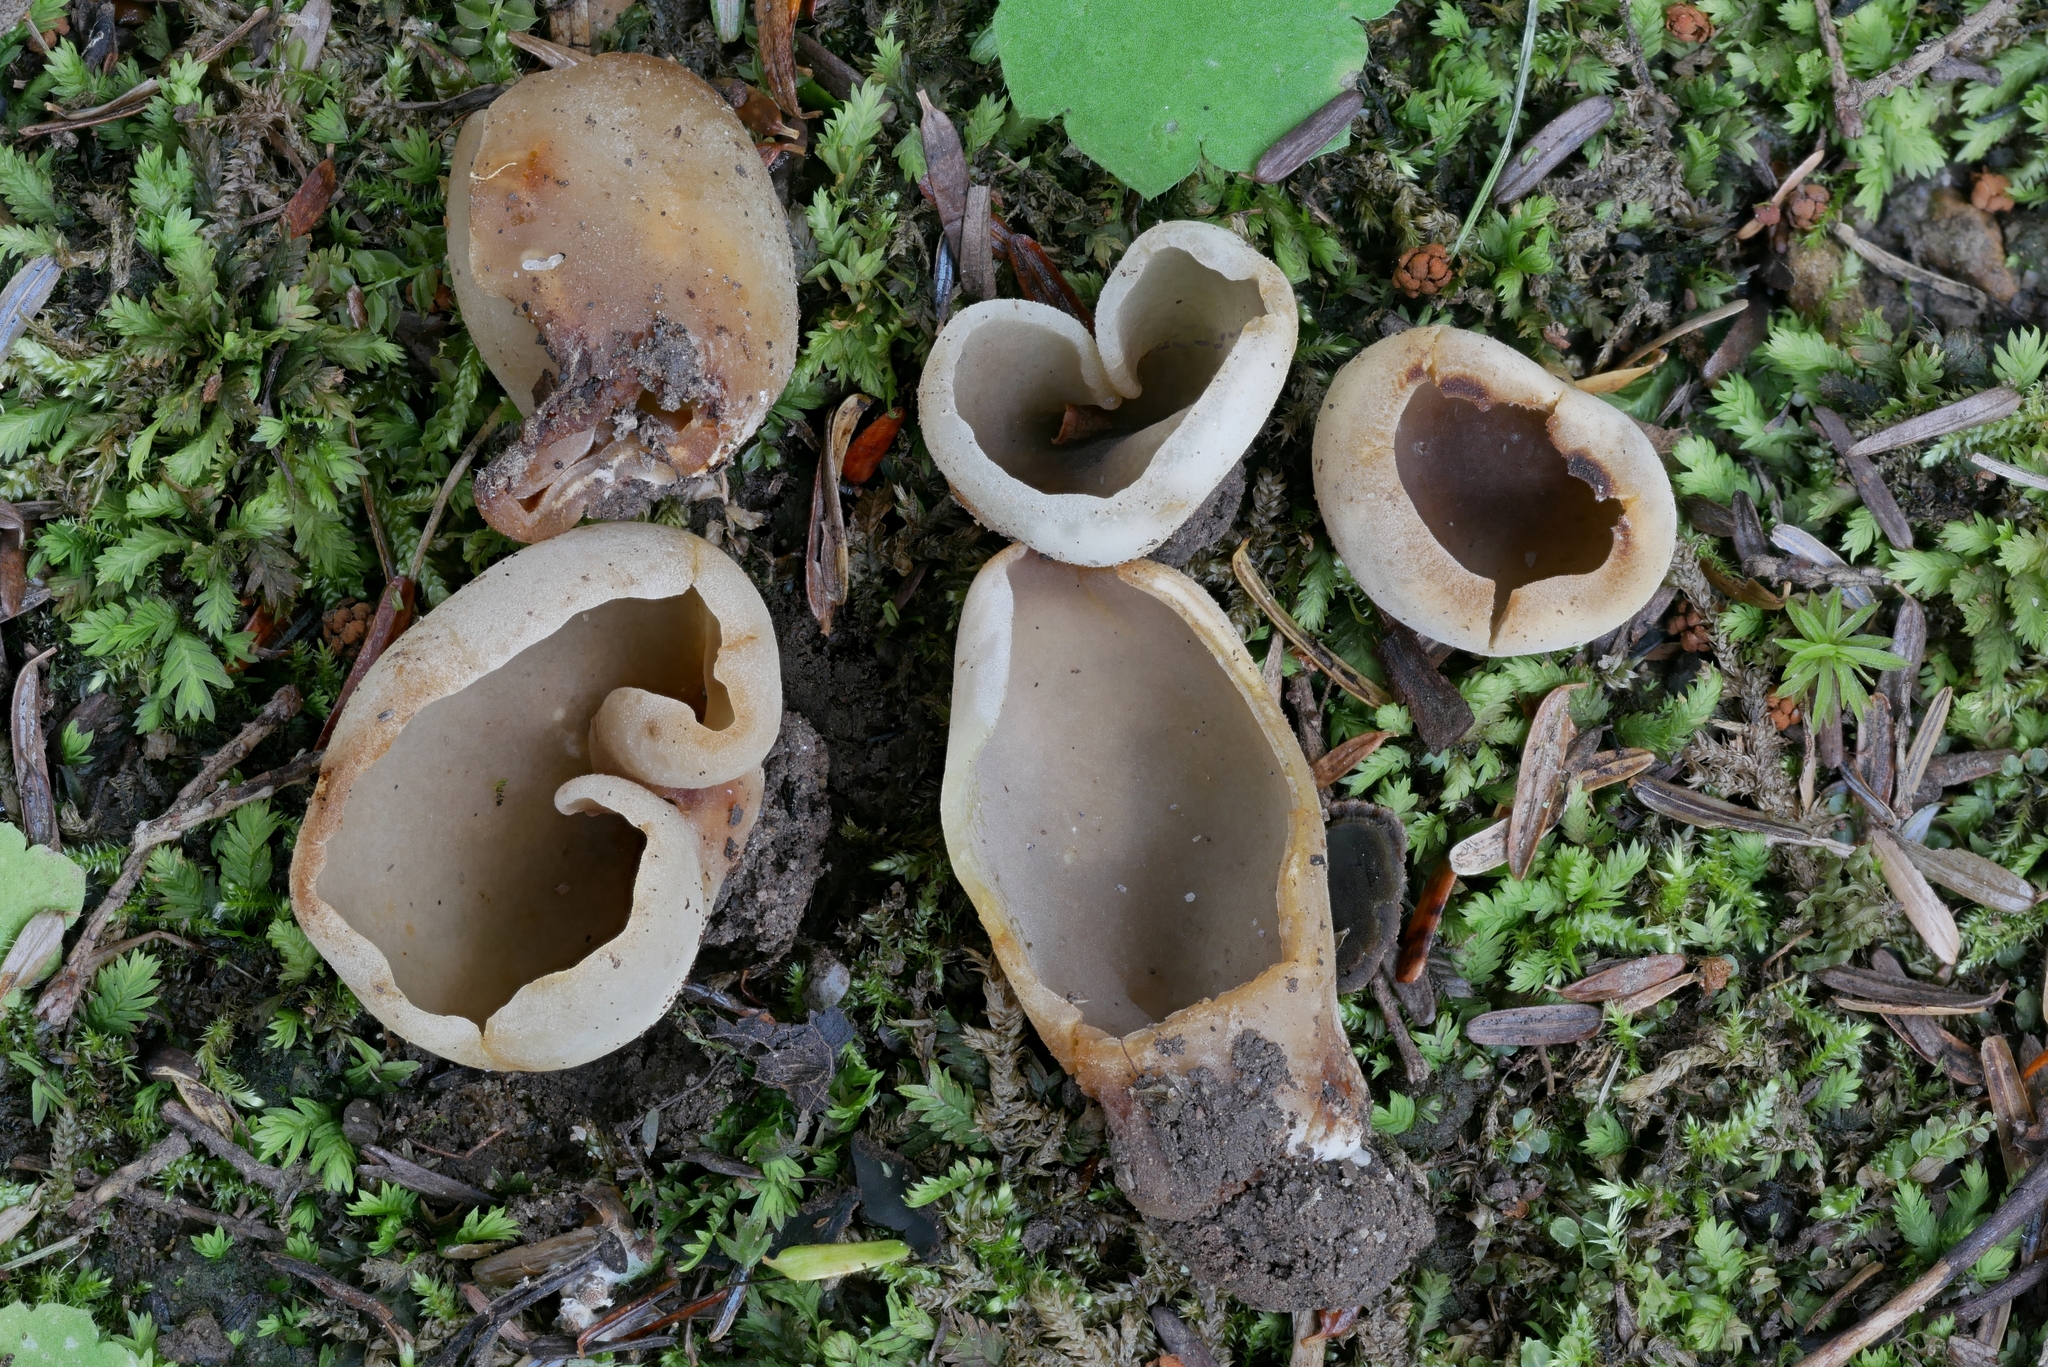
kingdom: Fungi
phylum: Ascomycota
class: Pezizomycetes
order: Pezizales
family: Pezizaceae
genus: Paragalactinia
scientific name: Paragalactinia succosa
